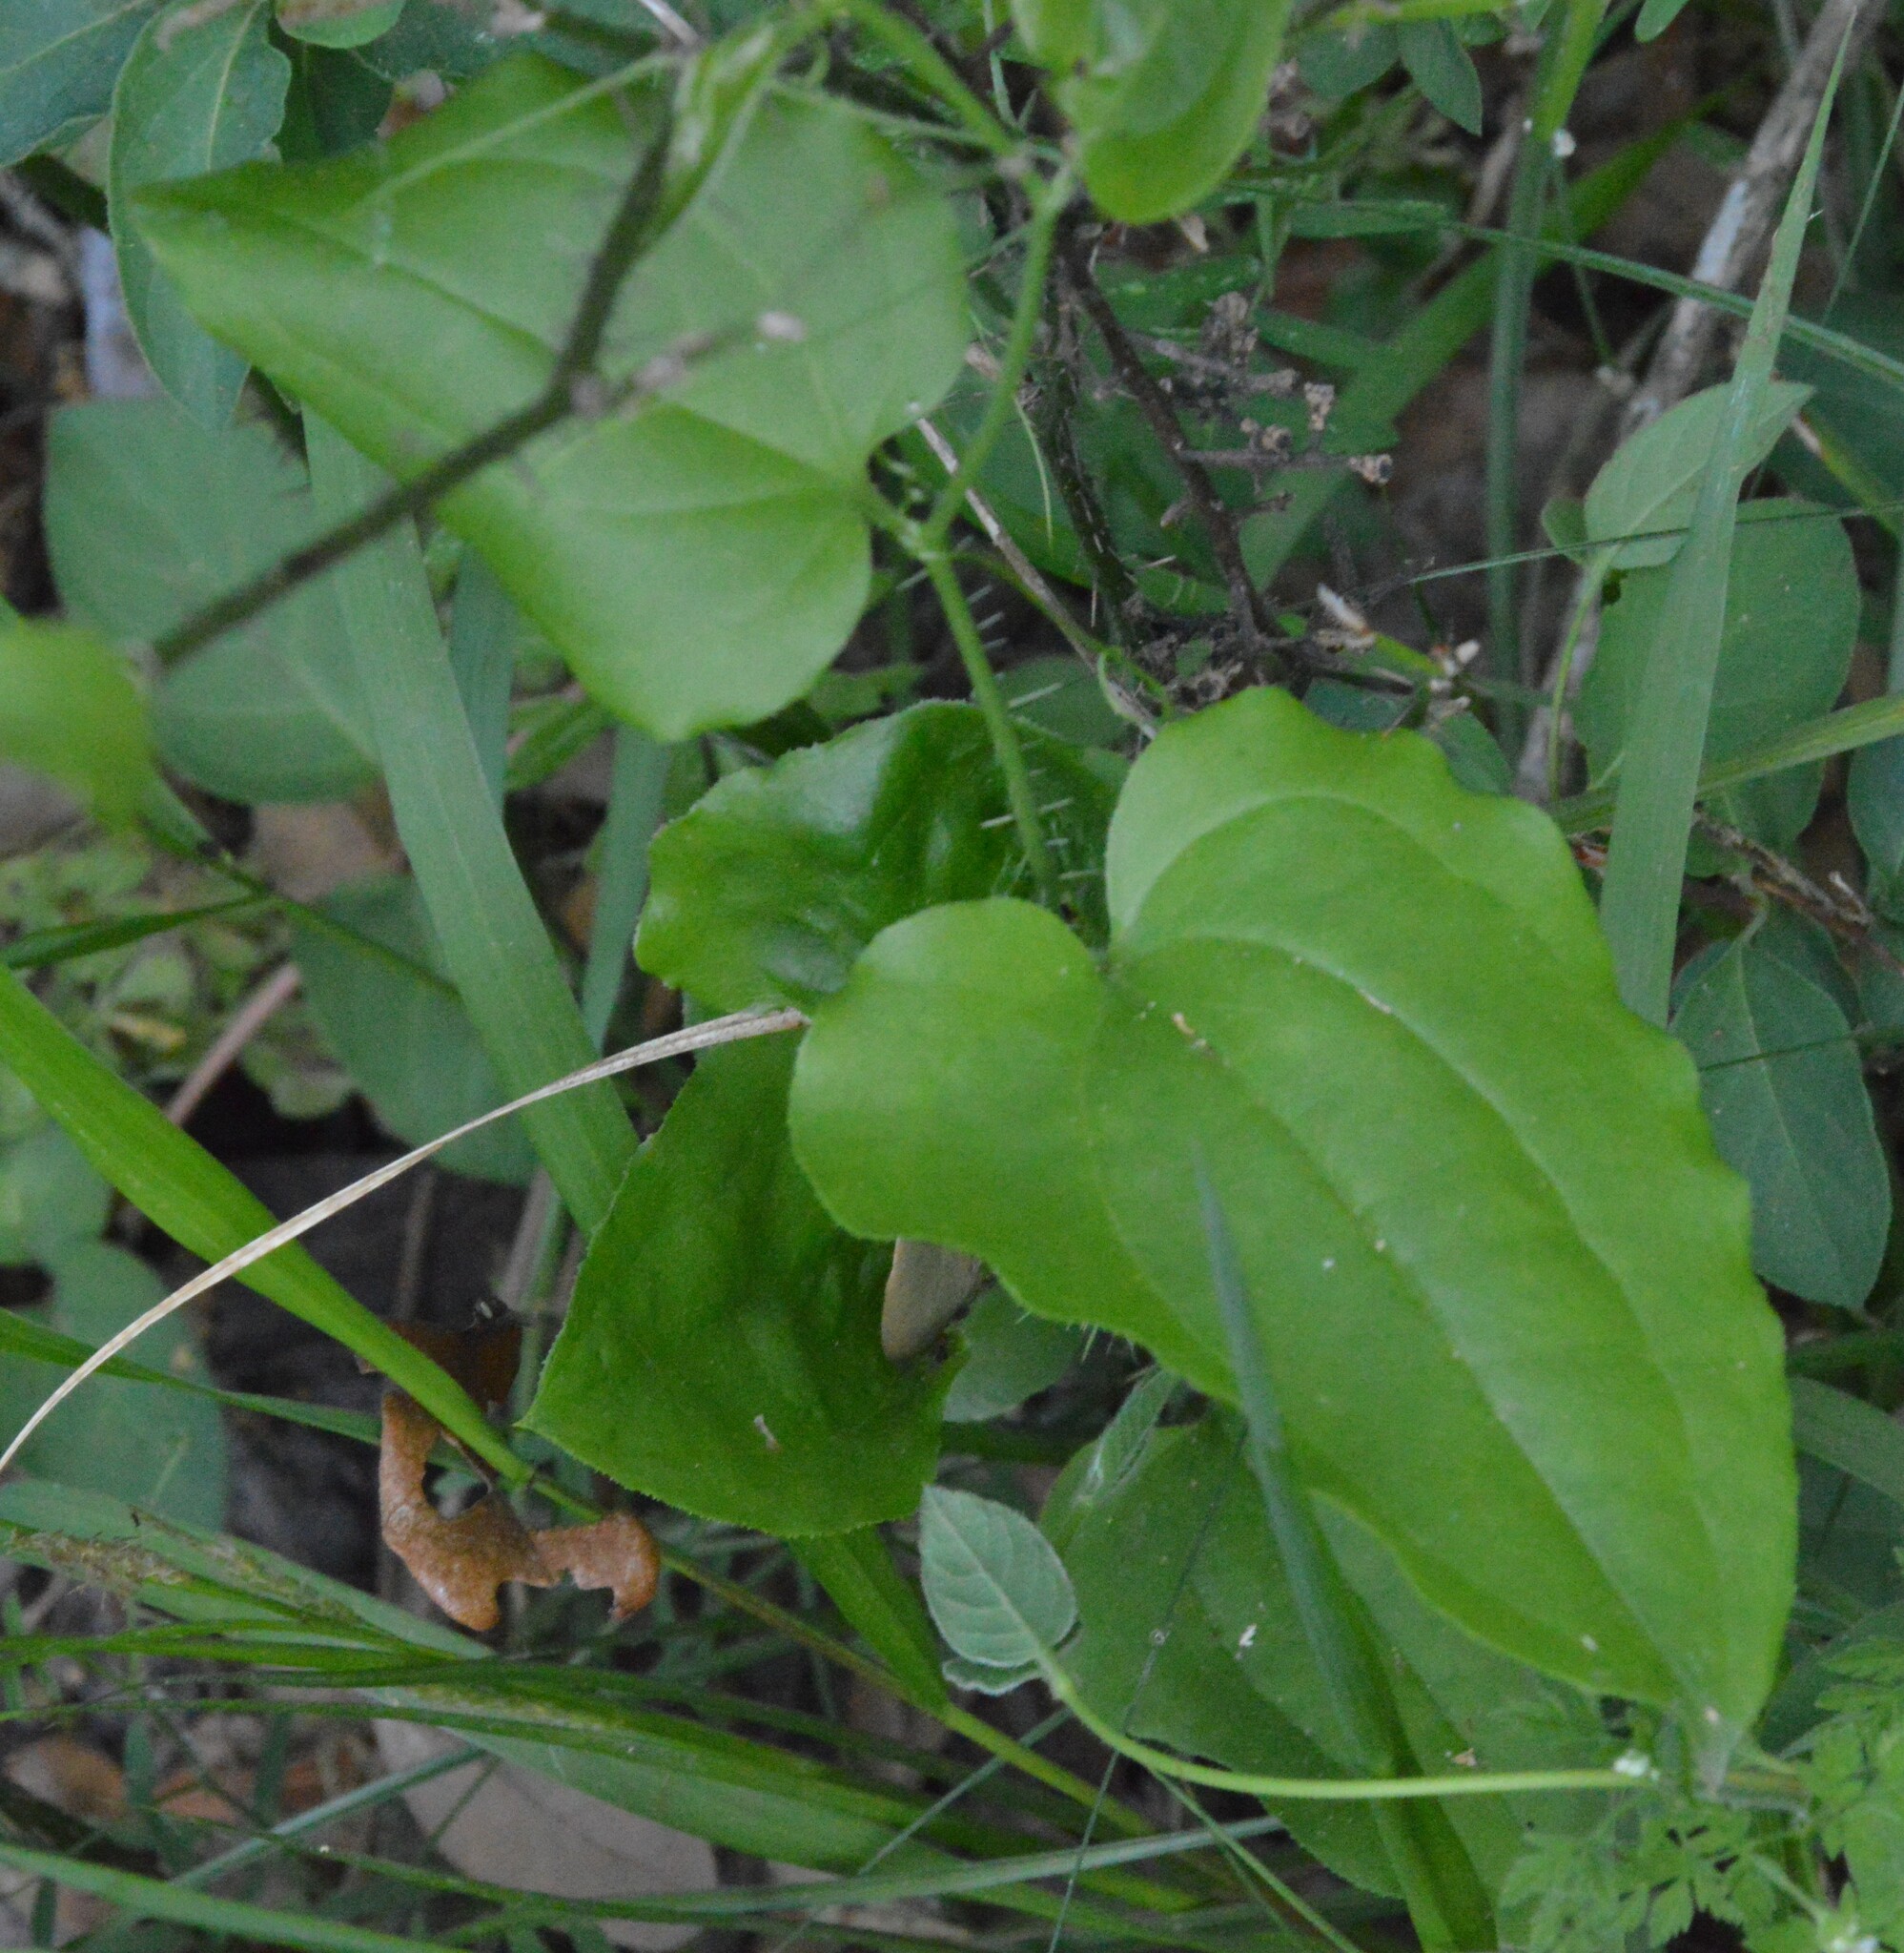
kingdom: Plantae
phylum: Tracheophyta
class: Liliopsida
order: Liliales
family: Smilacaceae
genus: Smilax
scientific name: Smilax tamnoides
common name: Hellfetter
